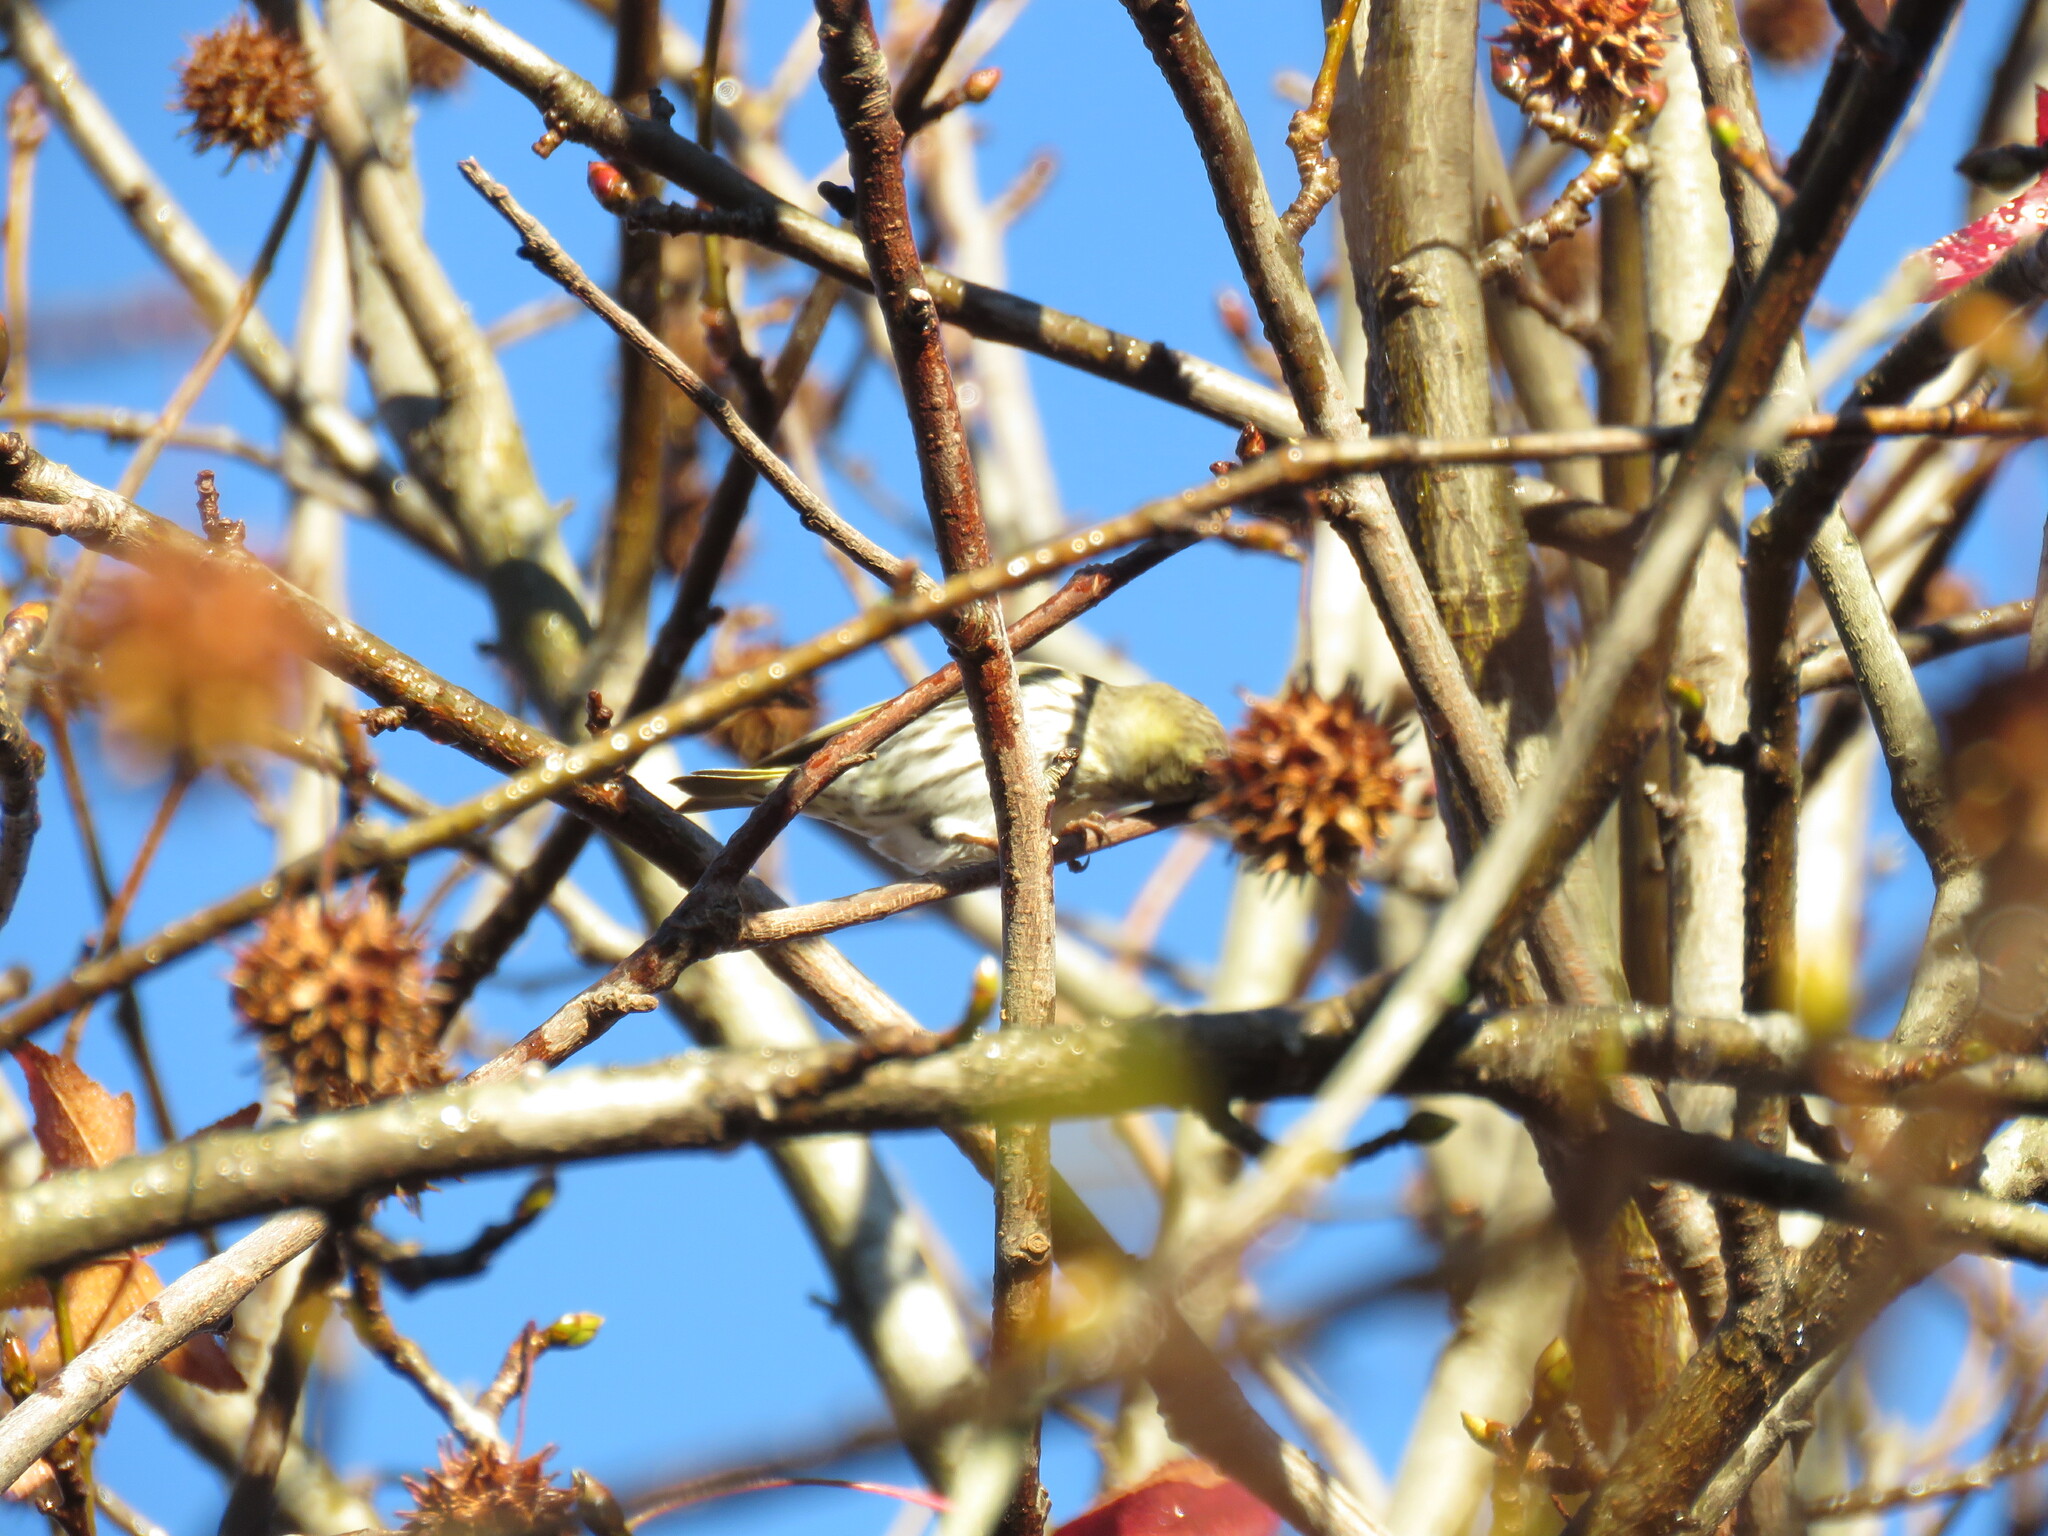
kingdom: Animalia
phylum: Chordata
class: Aves
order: Passeriformes
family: Fringillidae
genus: Spinus
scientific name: Spinus spinus
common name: Eurasian siskin
